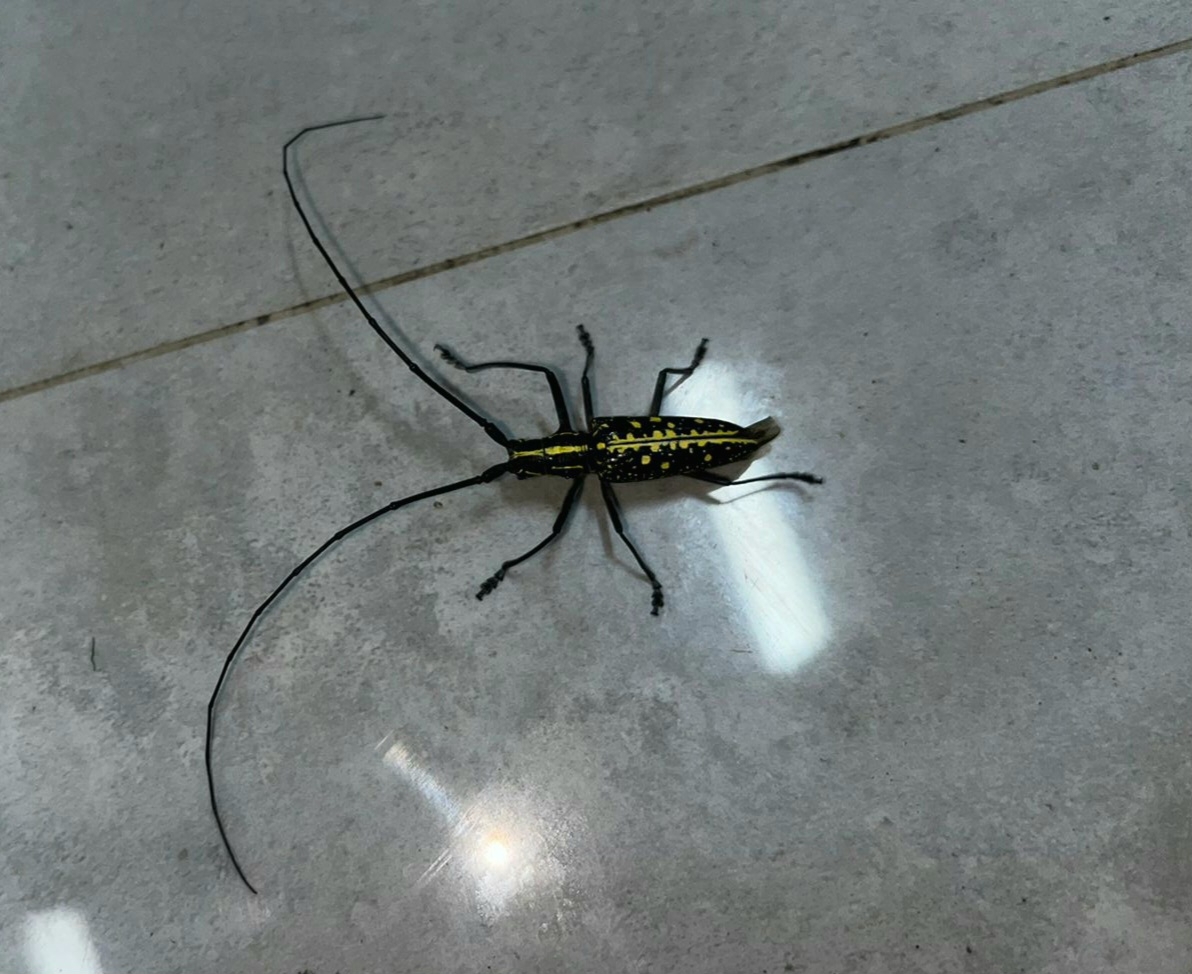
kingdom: Animalia
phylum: Arthropoda
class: Insecta
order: Coleoptera
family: Cerambycidae
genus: Taeniotes
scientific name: Taeniotes amazonum
